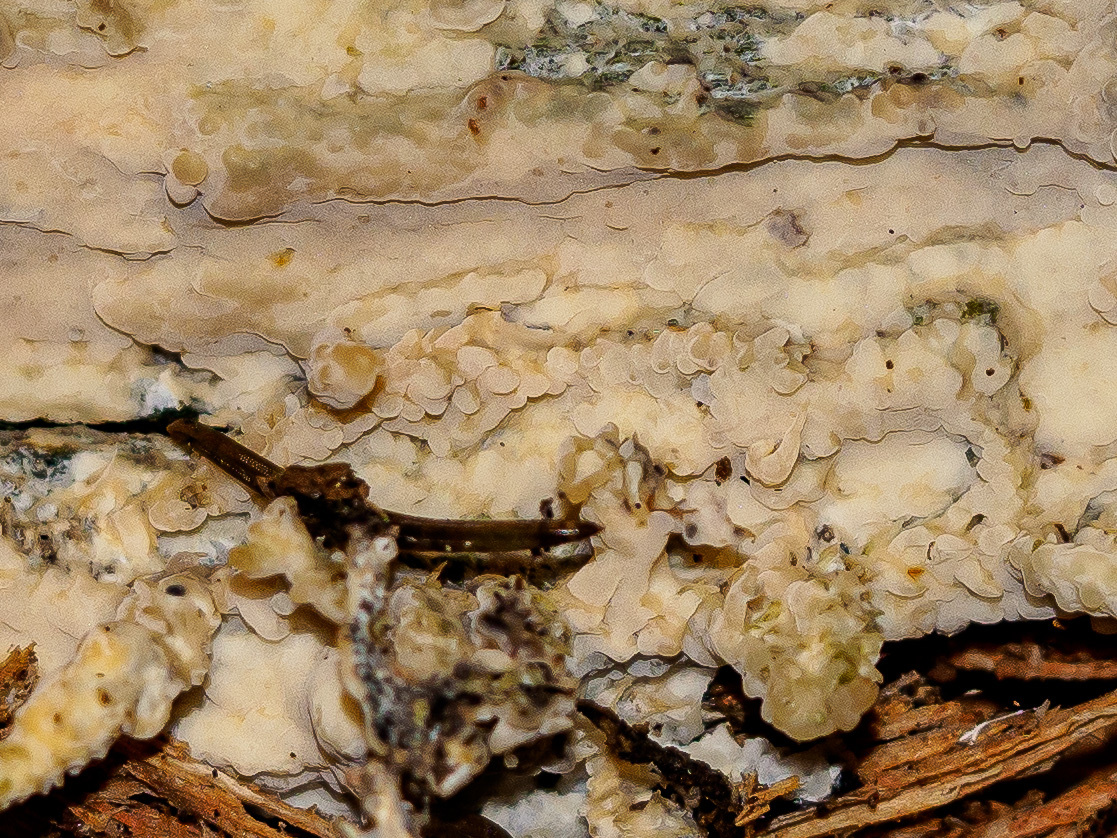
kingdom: Fungi
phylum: Basidiomycota
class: Agaricomycetes
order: Russulales
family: Peniophoraceae
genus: Gloiothele
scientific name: Gloiothele citrina
